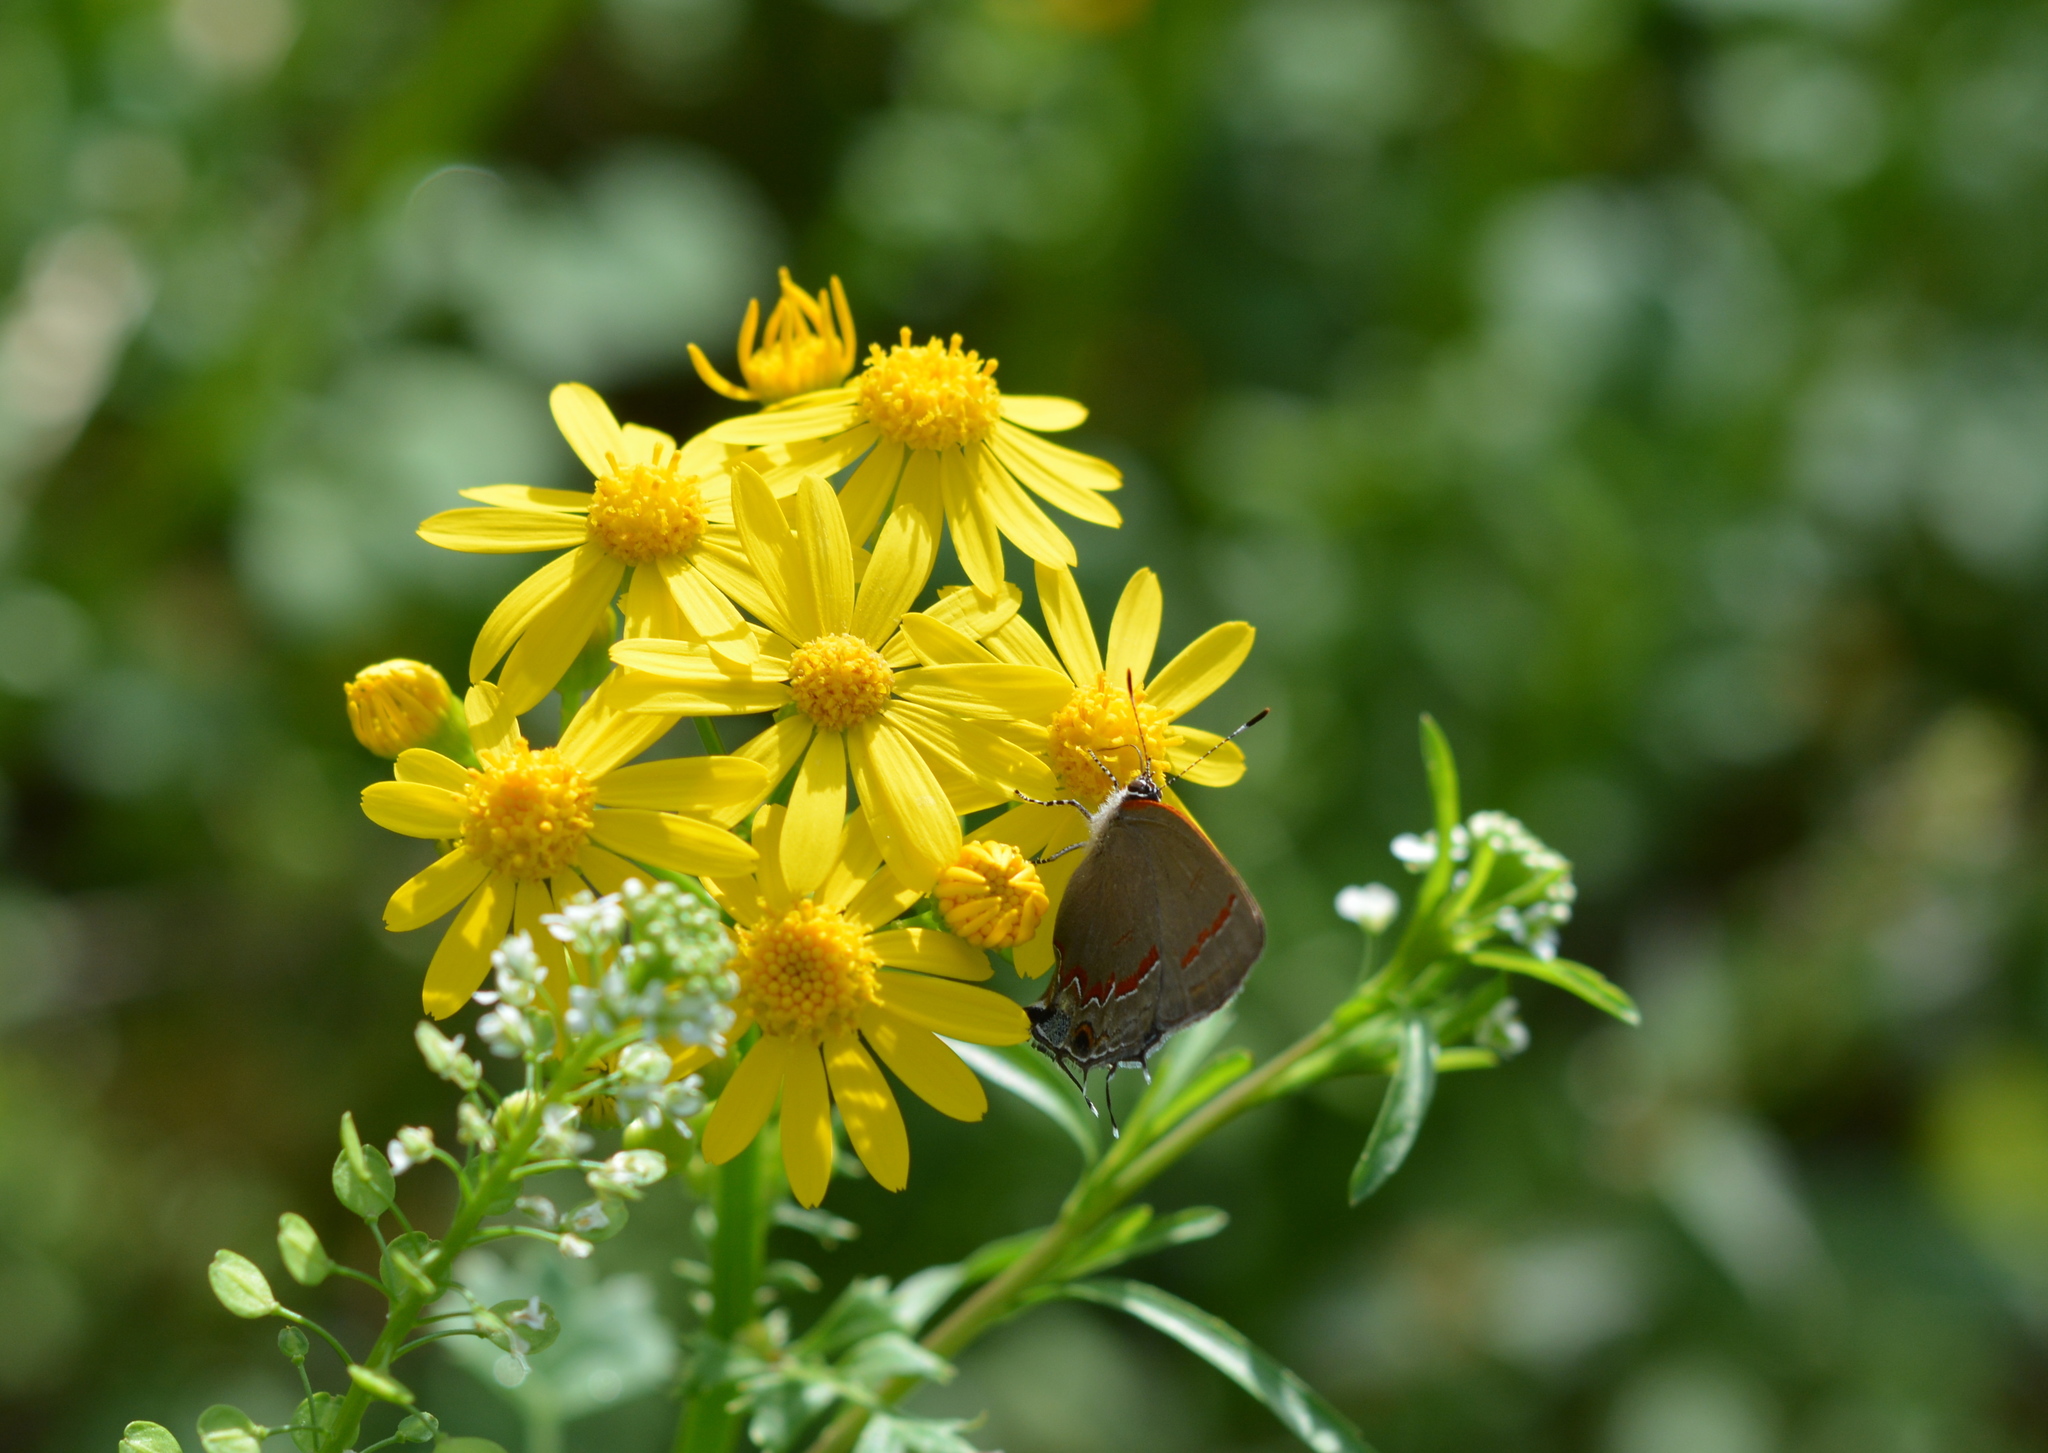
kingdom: Animalia
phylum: Arthropoda
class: Insecta
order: Lepidoptera
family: Lycaenidae
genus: Calycopis
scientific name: Calycopis cecrops
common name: Red-banded hairstreak
